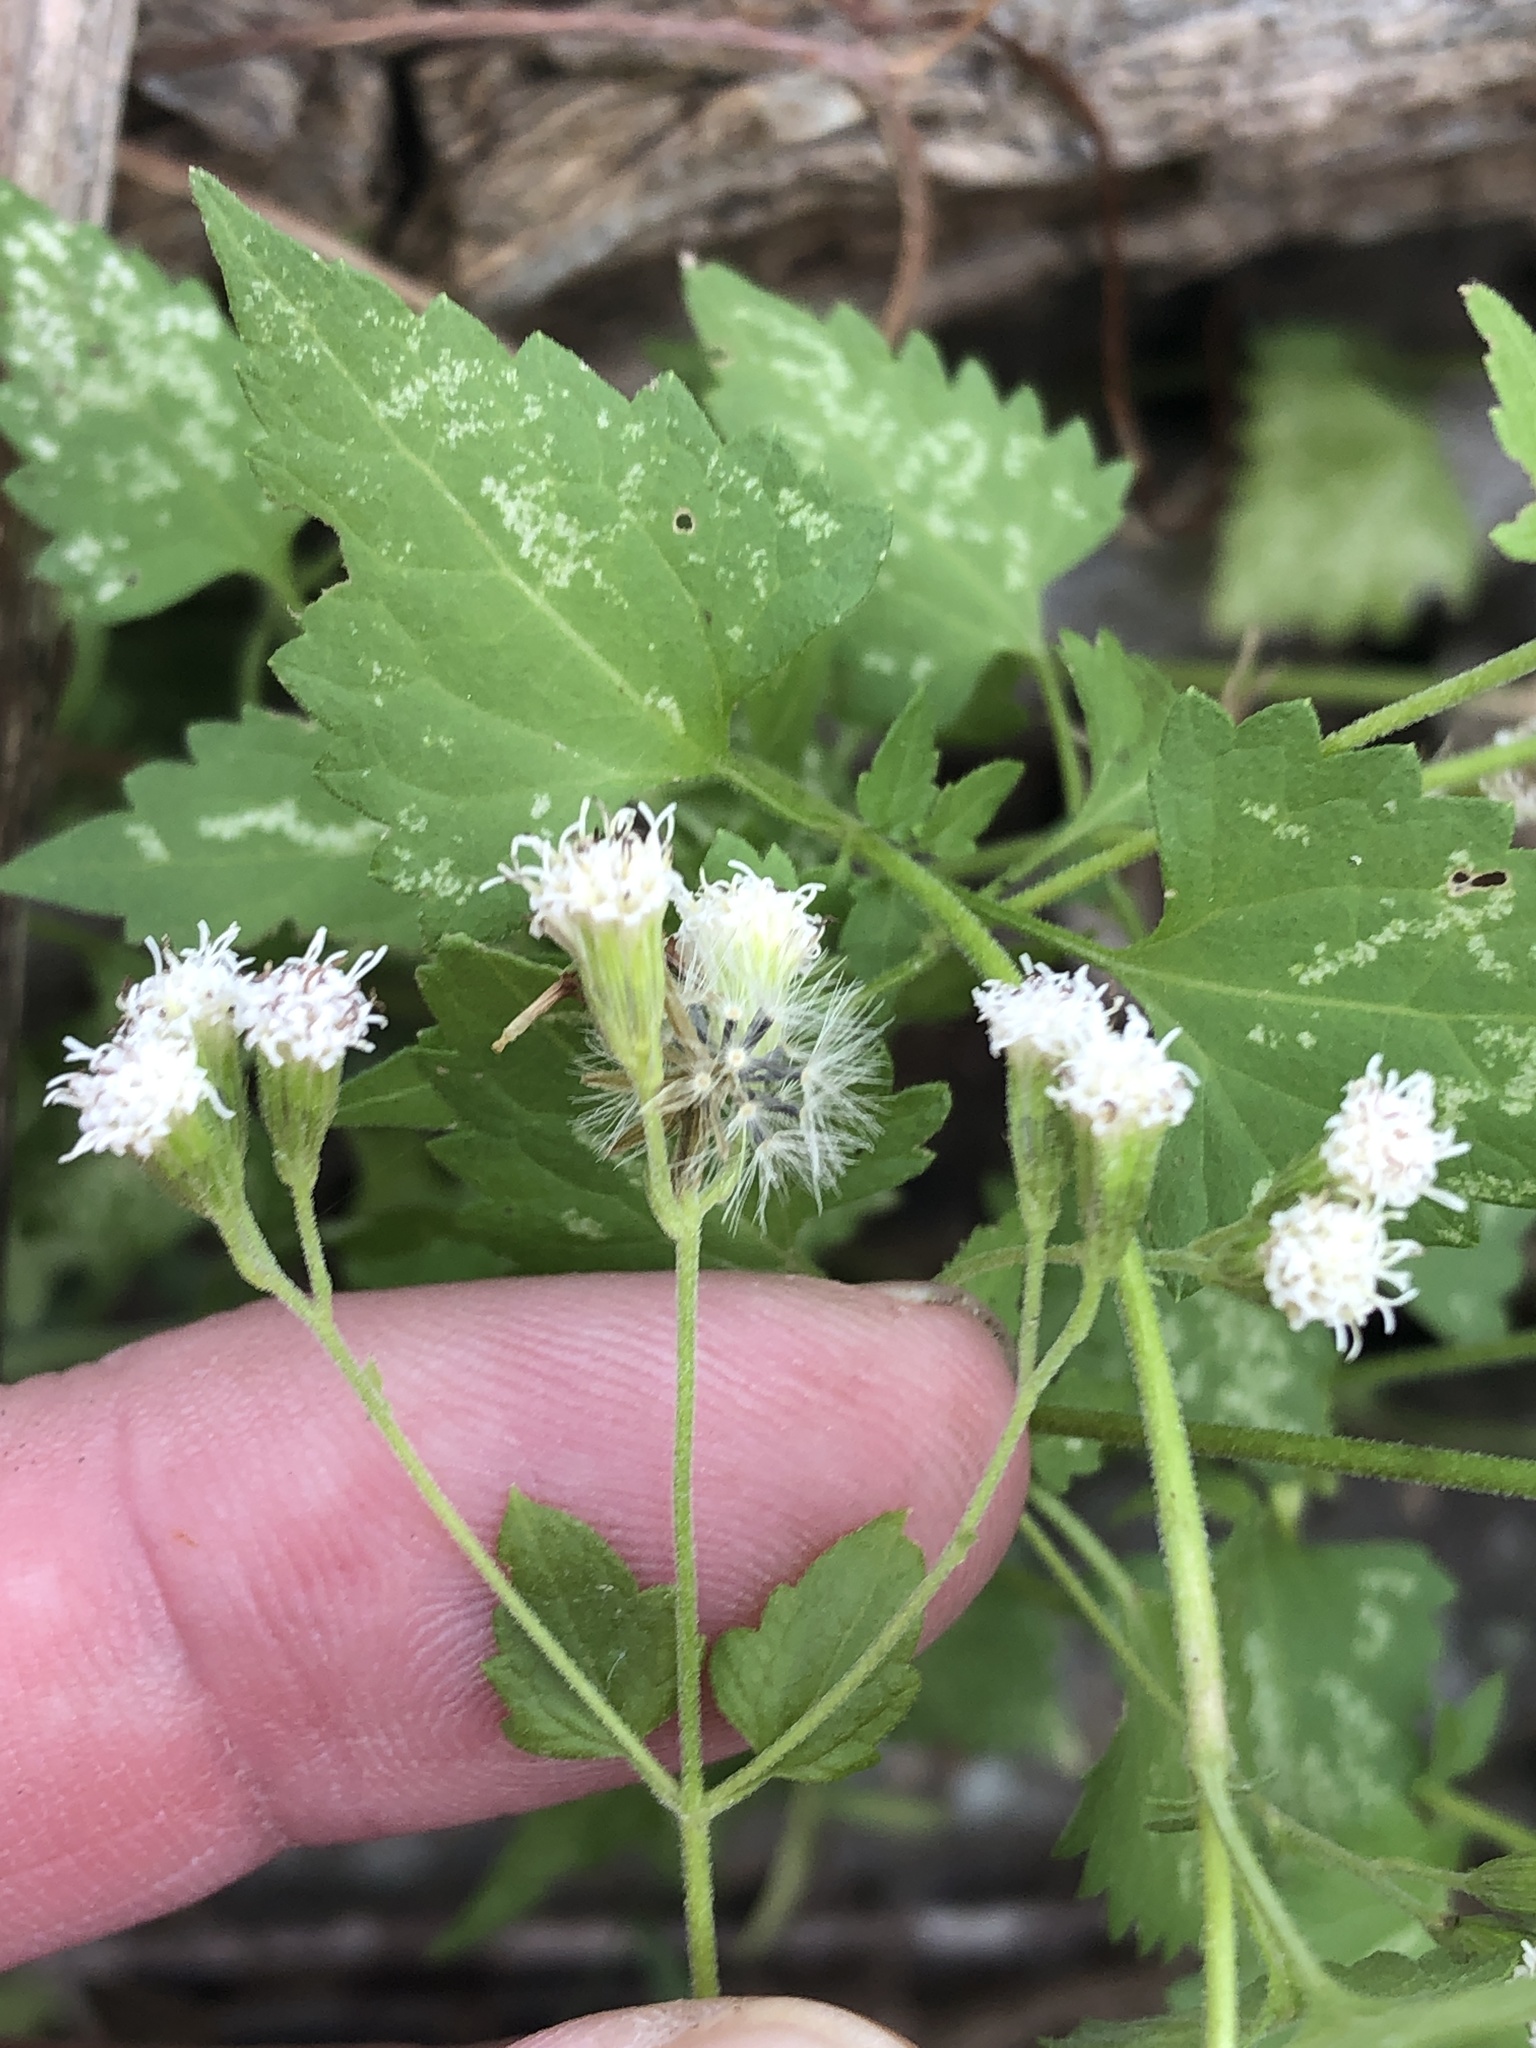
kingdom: Plantae
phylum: Tracheophyta
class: Magnoliopsida
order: Asterales
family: Asteraceae
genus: Fleischmannia
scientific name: Fleischmannia incarnata
